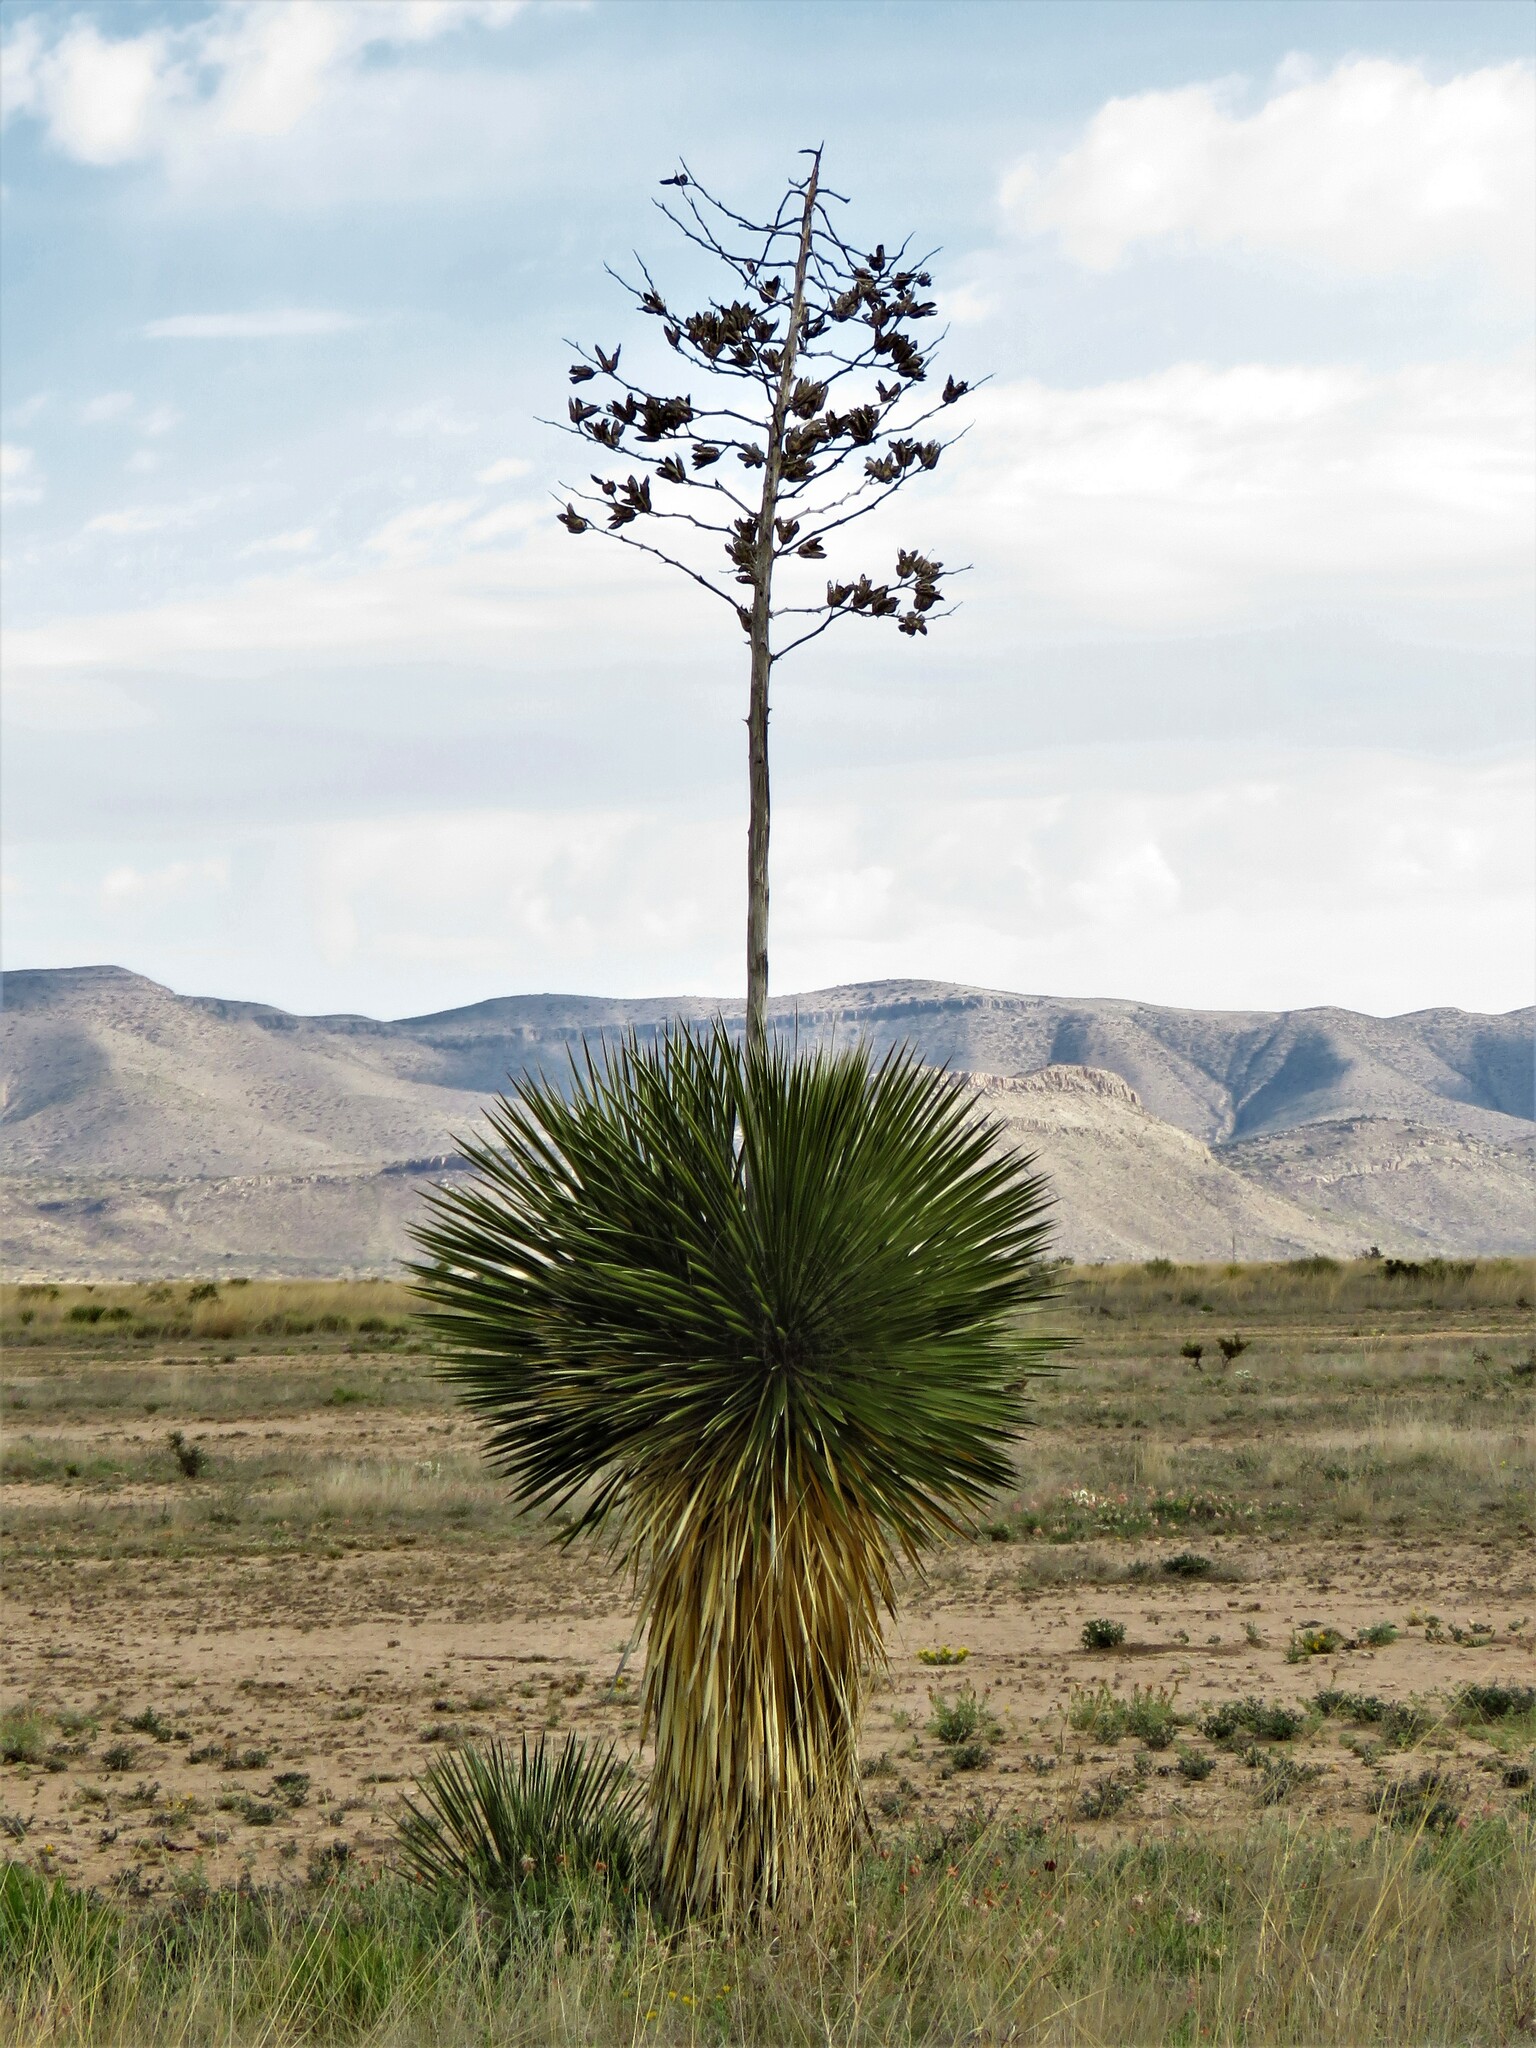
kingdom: Plantae
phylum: Tracheophyta
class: Liliopsida
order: Asparagales
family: Asparagaceae
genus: Yucca
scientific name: Yucca elata
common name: Palmella
